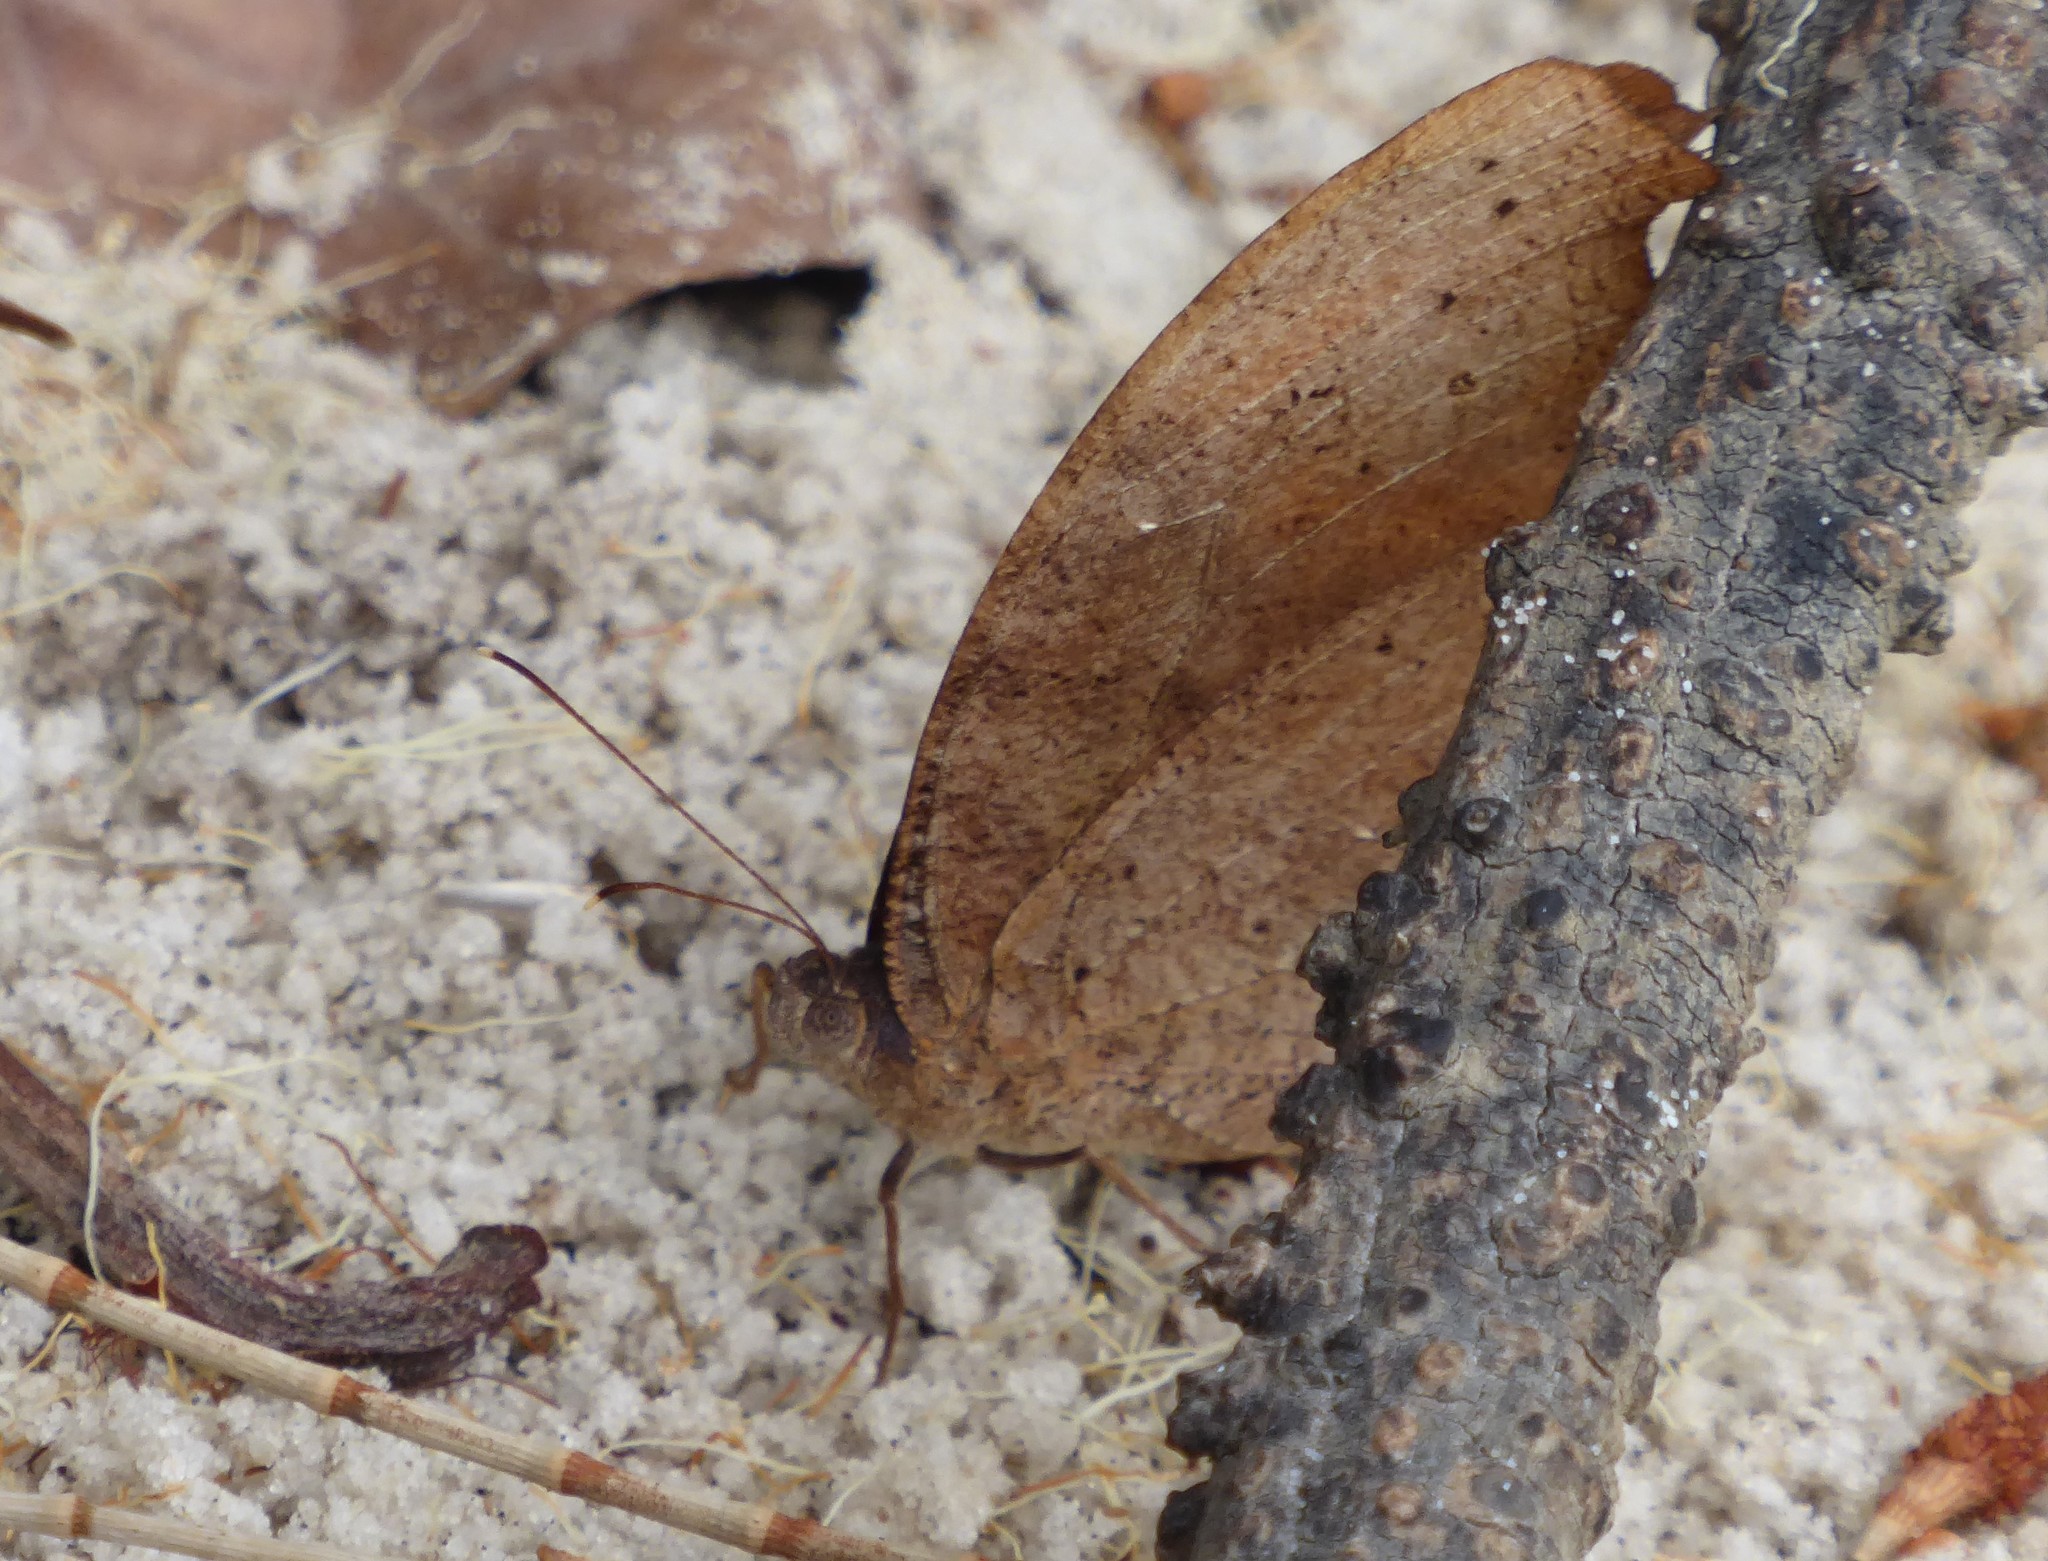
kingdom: Animalia
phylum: Arthropoda
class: Insecta
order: Lepidoptera
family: Nymphalidae
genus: Melanitis
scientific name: Melanitis leda
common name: Twilight brown
